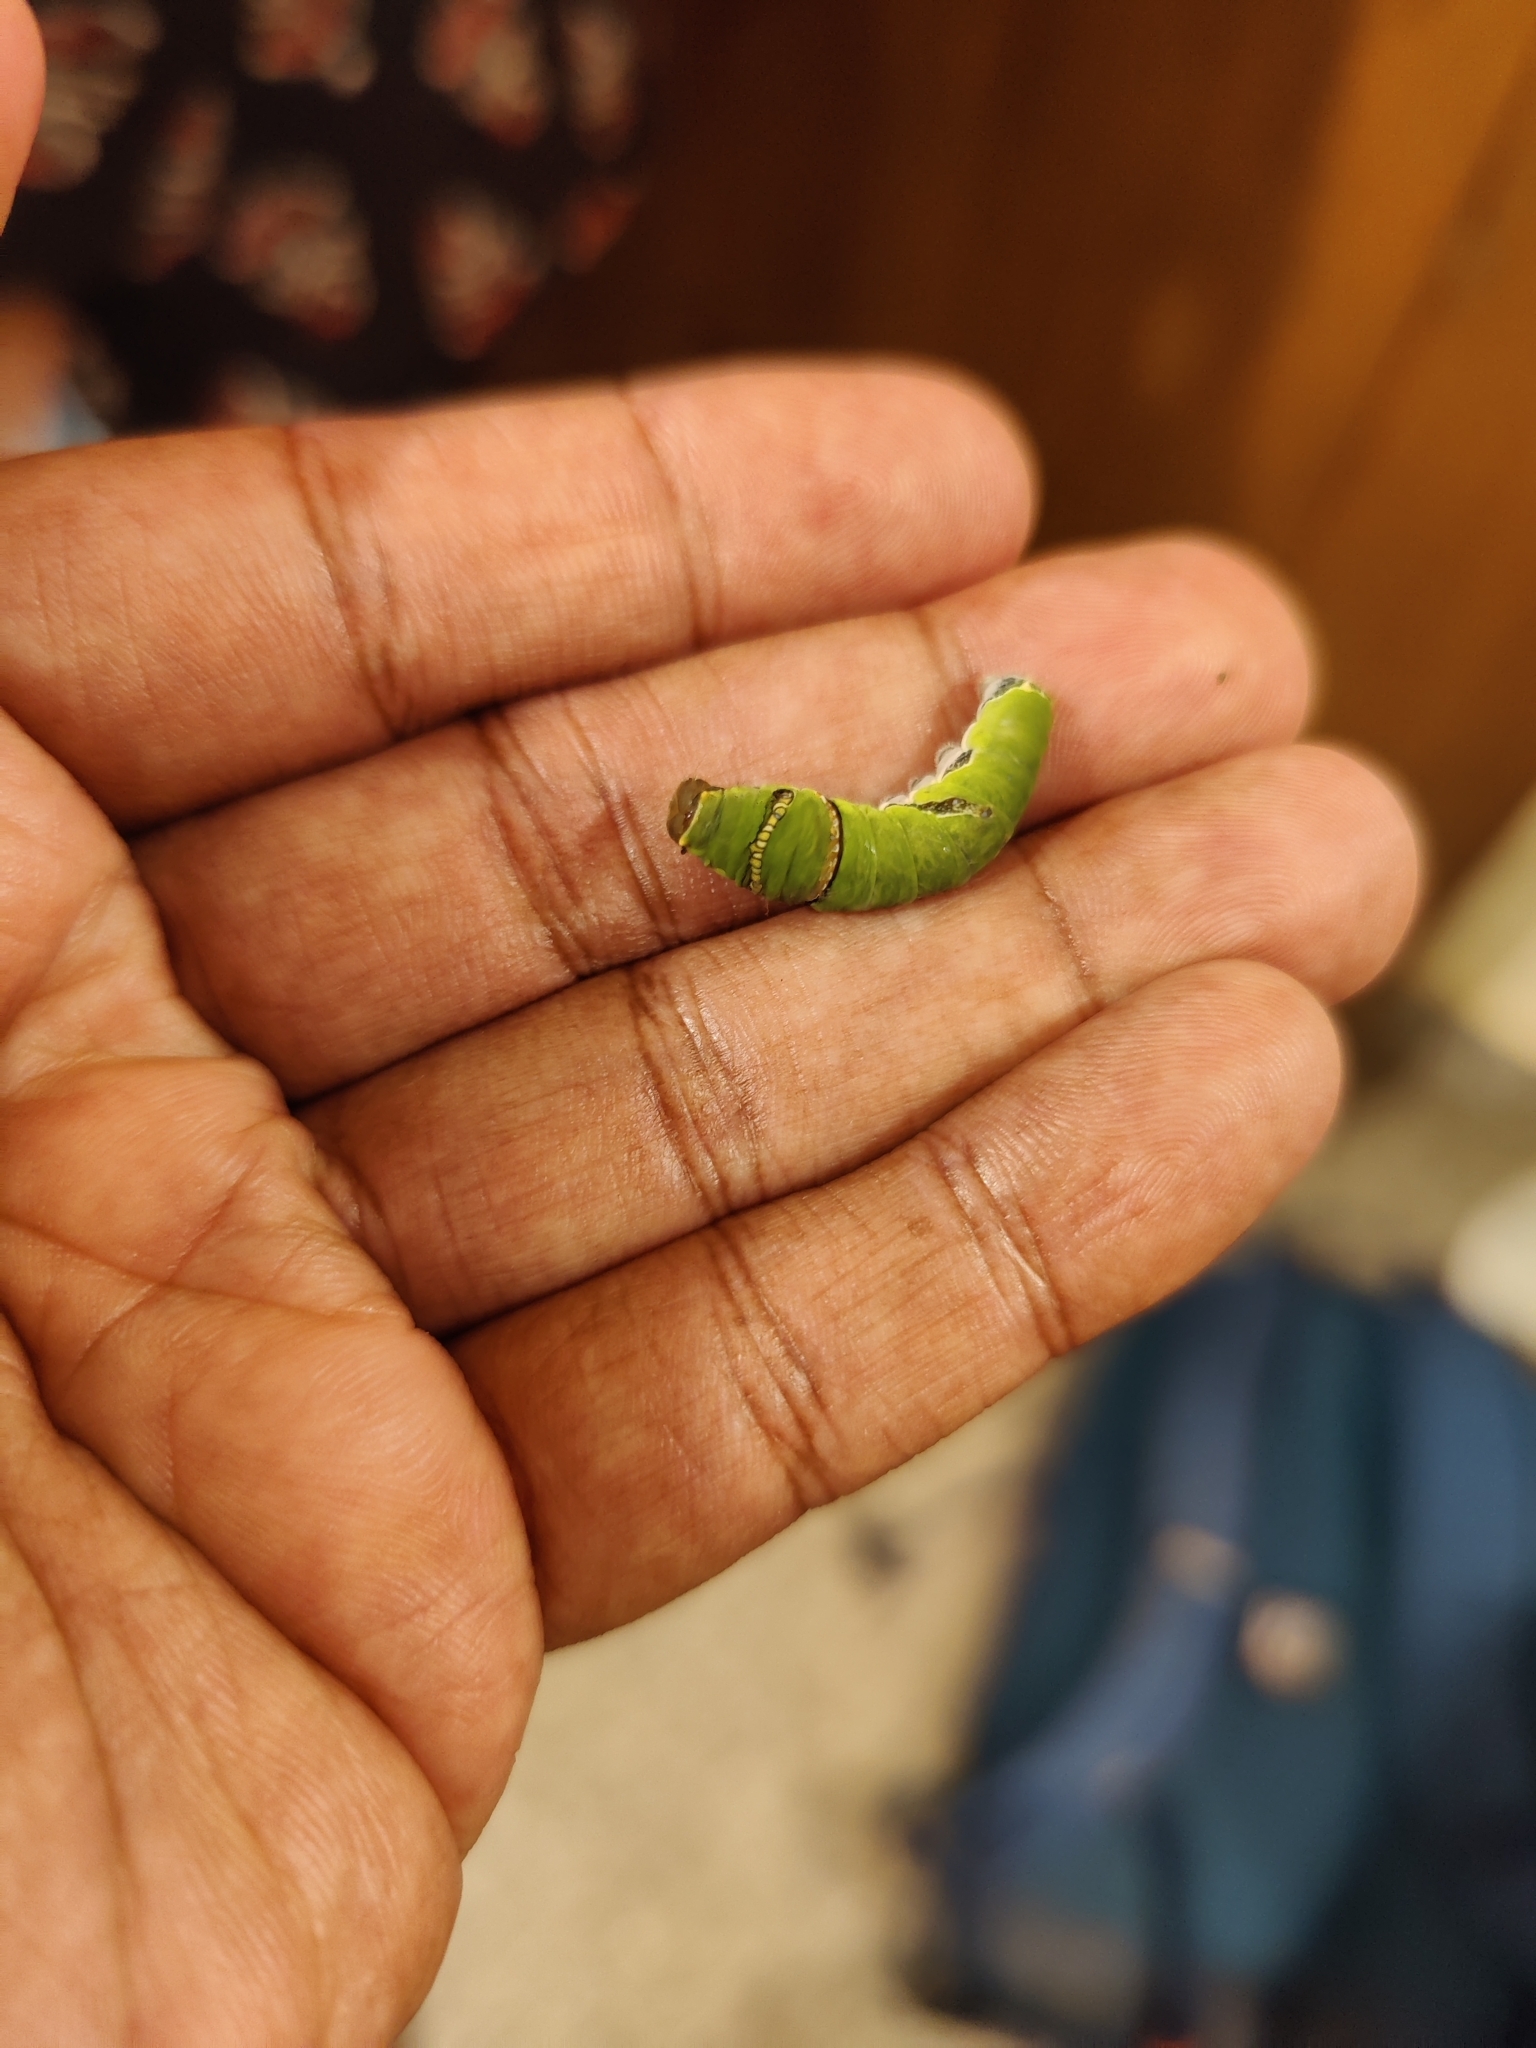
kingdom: Animalia
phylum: Arthropoda
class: Insecta
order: Lepidoptera
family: Papilionidae
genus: Papilio
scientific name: Papilio polytes
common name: Common mormon
